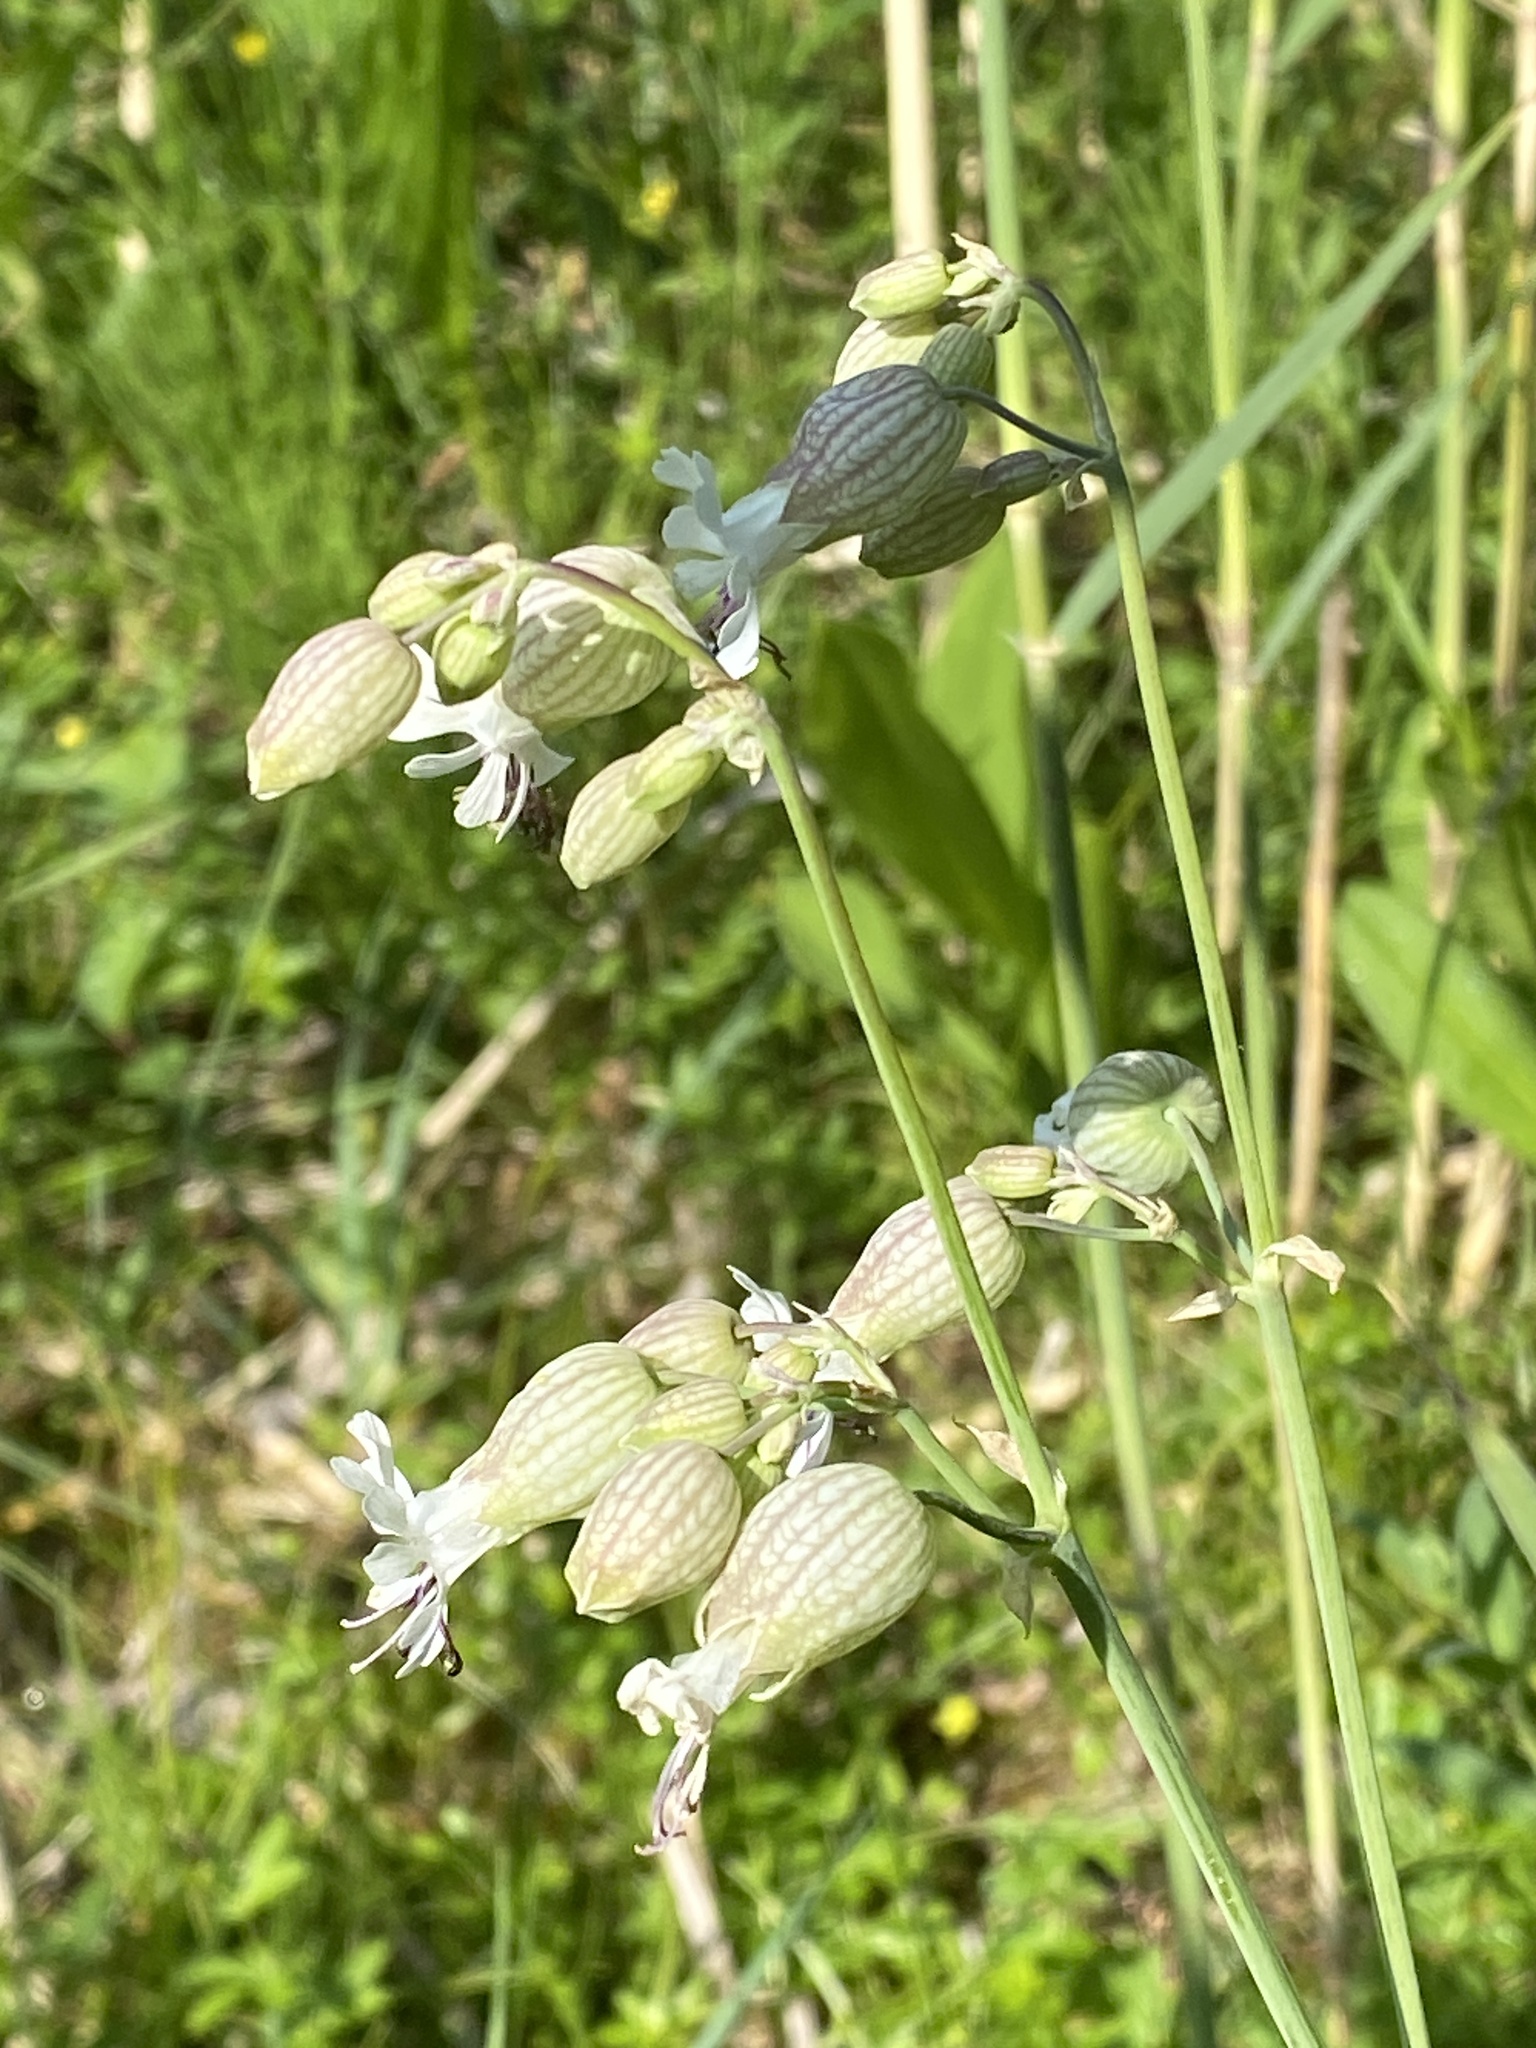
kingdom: Plantae
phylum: Tracheophyta
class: Magnoliopsida
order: Caryophyllales
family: Caryophyllaceae
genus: Silene
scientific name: Silene vulgaris
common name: Bladder campion
